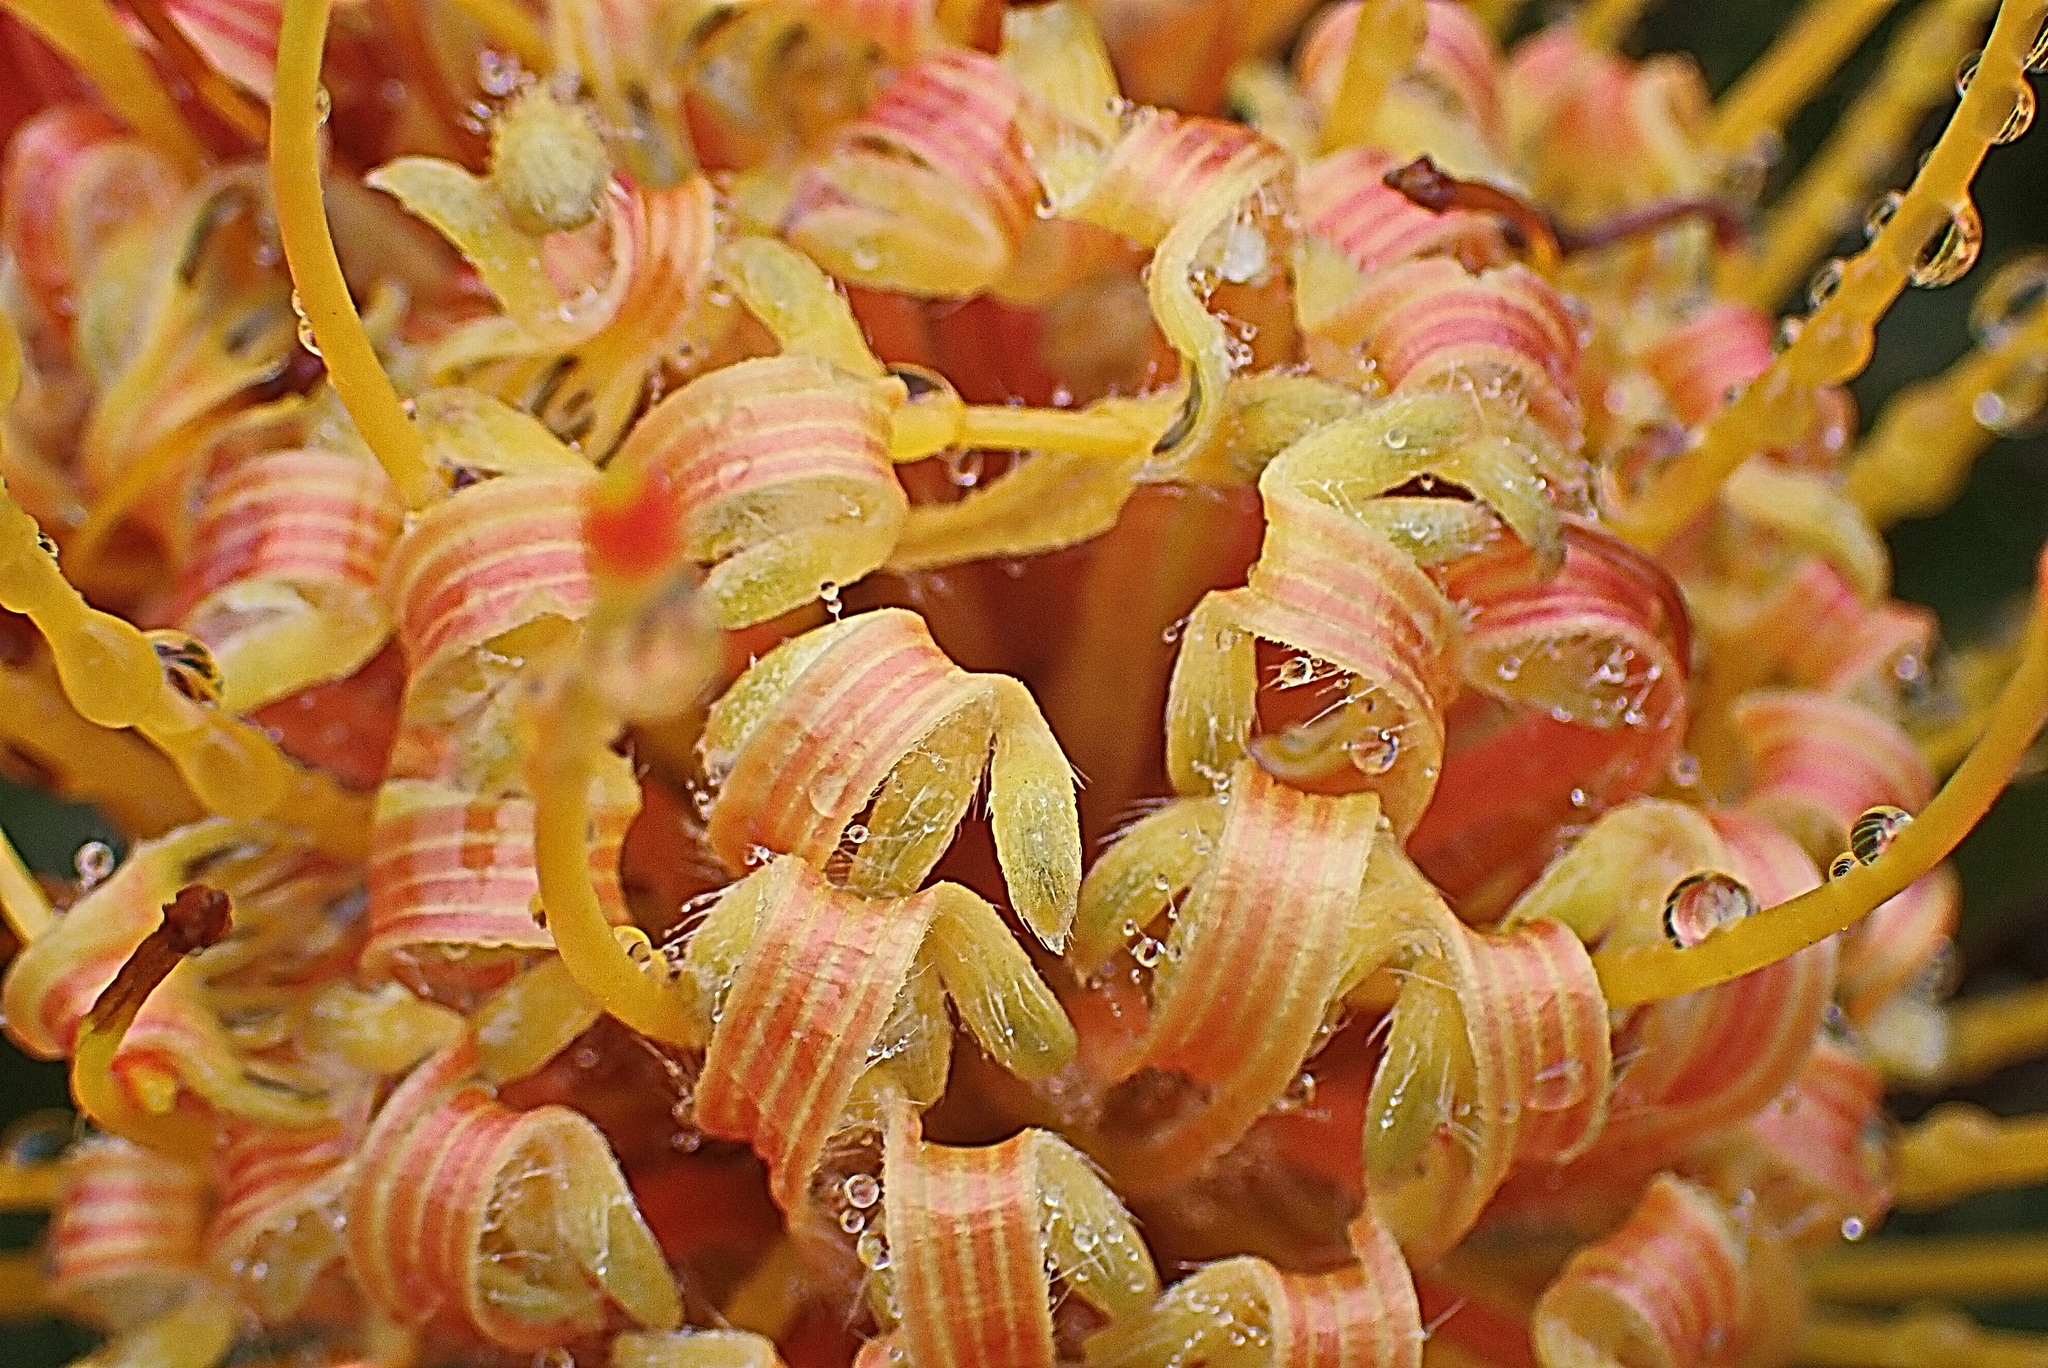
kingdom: Plantae
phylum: Tracheophyta
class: Magnoliopsida
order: Proteales
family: Proteaceae
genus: Leucospermum
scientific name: Leucospermum cuneiforme
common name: Common pincushion
